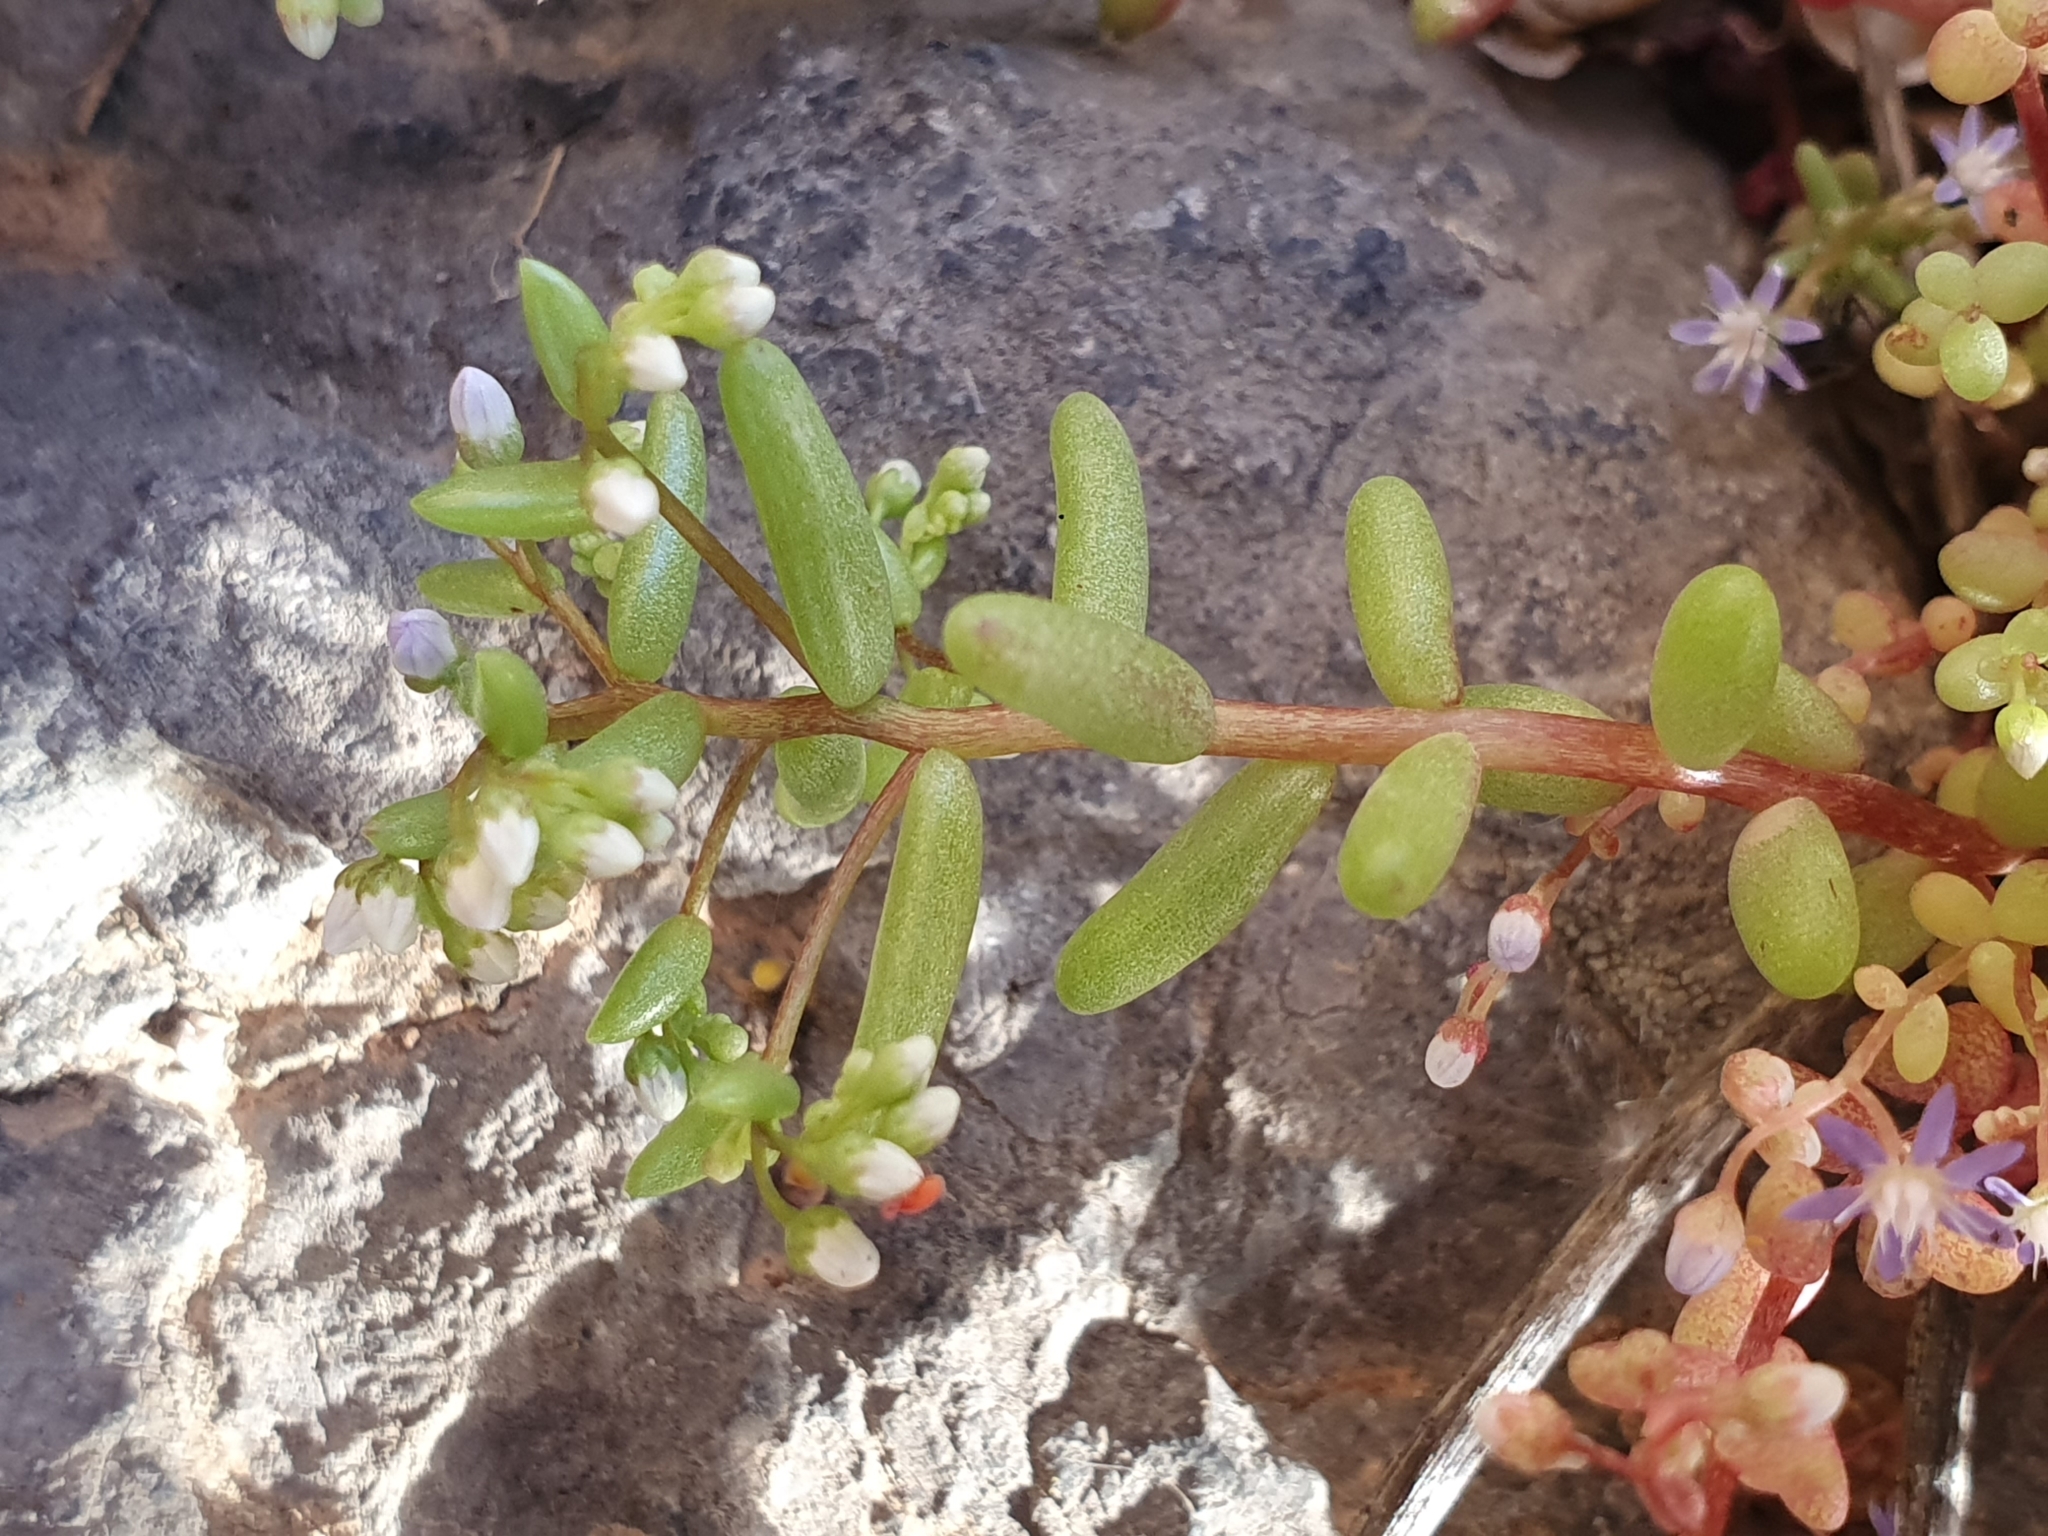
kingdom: Plantae
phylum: Tracheophyta
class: Magnoliopsida
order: Saxifragales
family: Crassulaceae
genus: Sedum
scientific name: Sedum caeruleum
